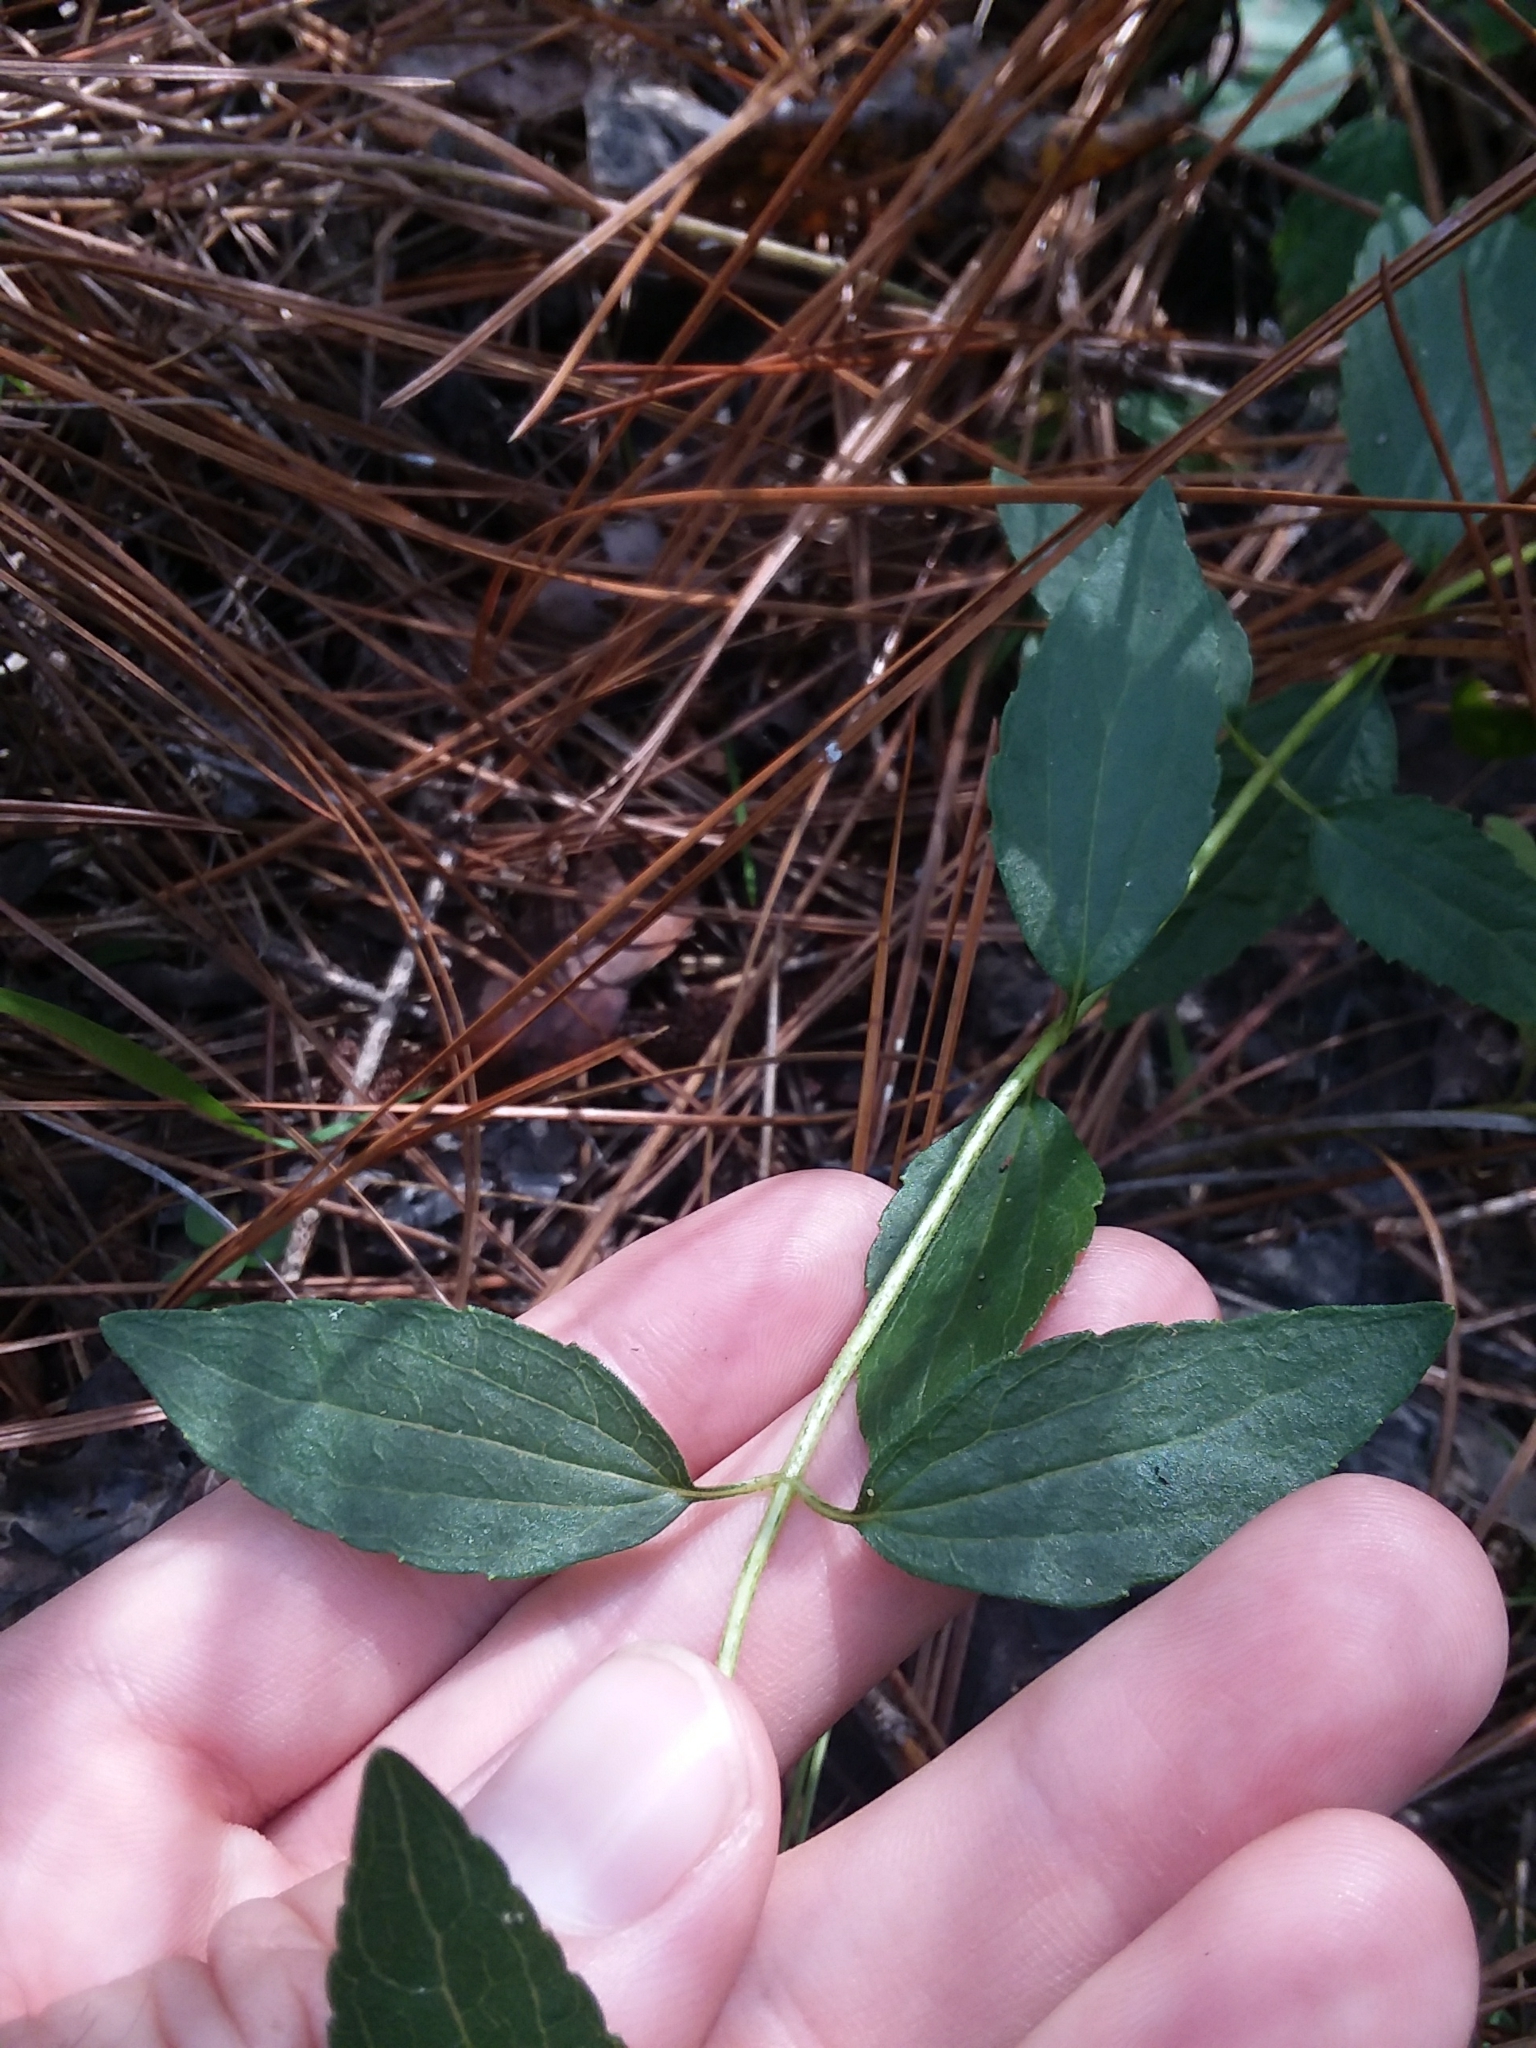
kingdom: Plantae
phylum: Tracheophyta
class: Magnoliopsida
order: Asterales
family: Asteraceae
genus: Ageratina
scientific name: Ageratina aromatica
